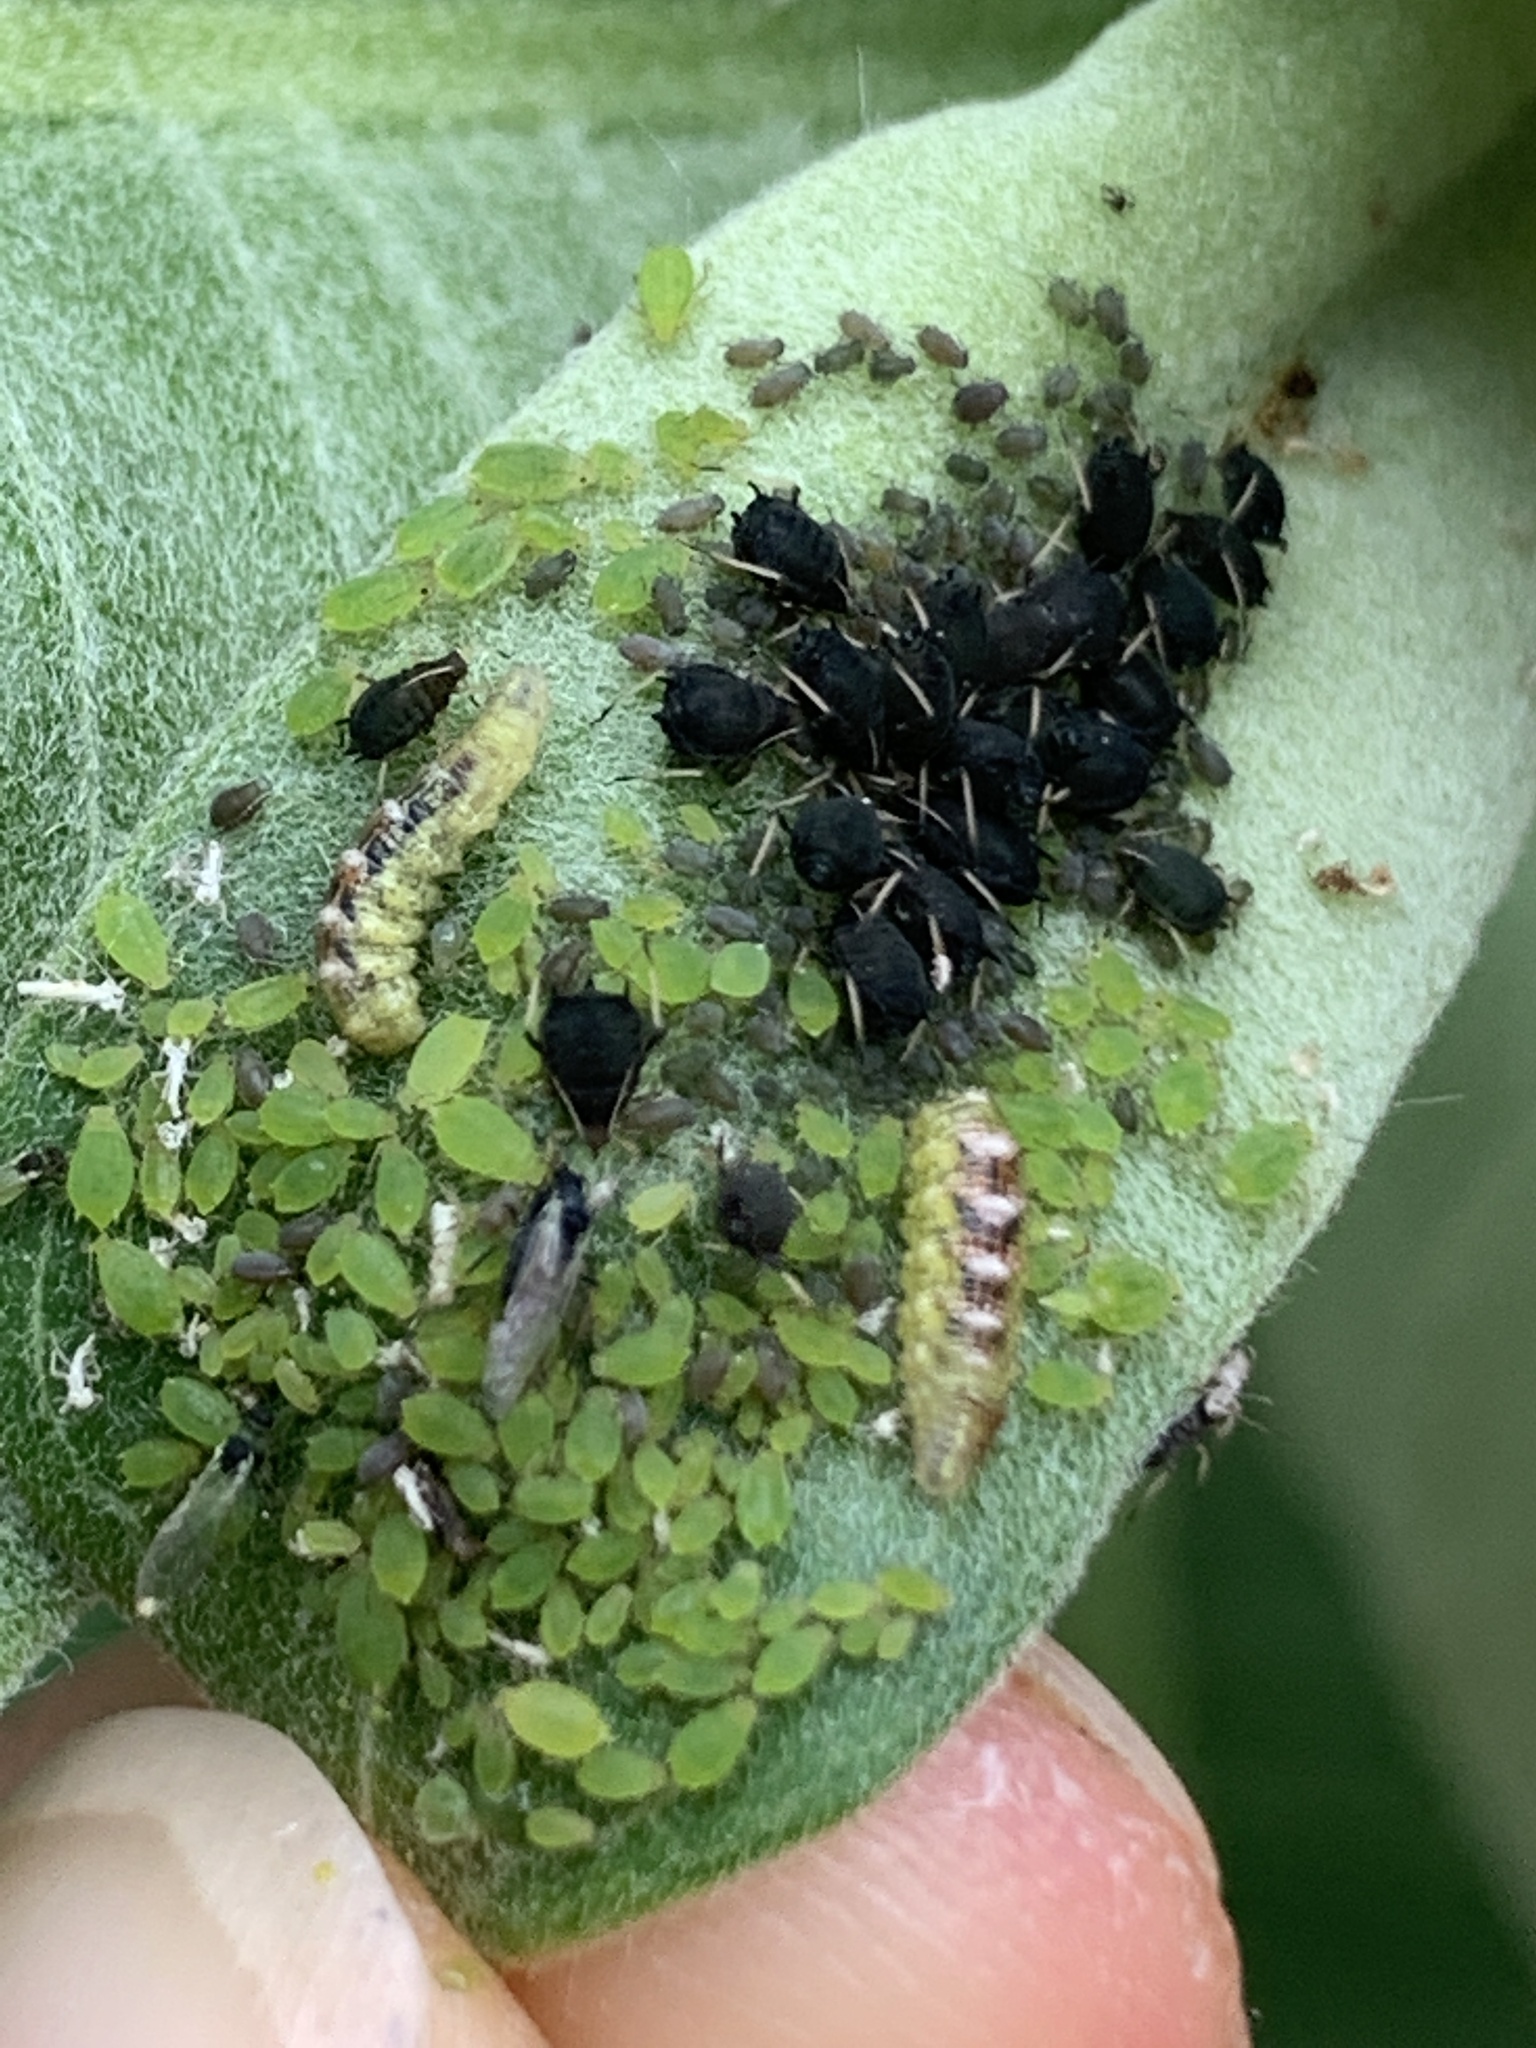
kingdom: Animalia
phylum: Arthropoda
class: Insecta
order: Diptera
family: Syrphidae
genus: Eupeodes
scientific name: Eupeodes pomus
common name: Short-tailed aphideater
